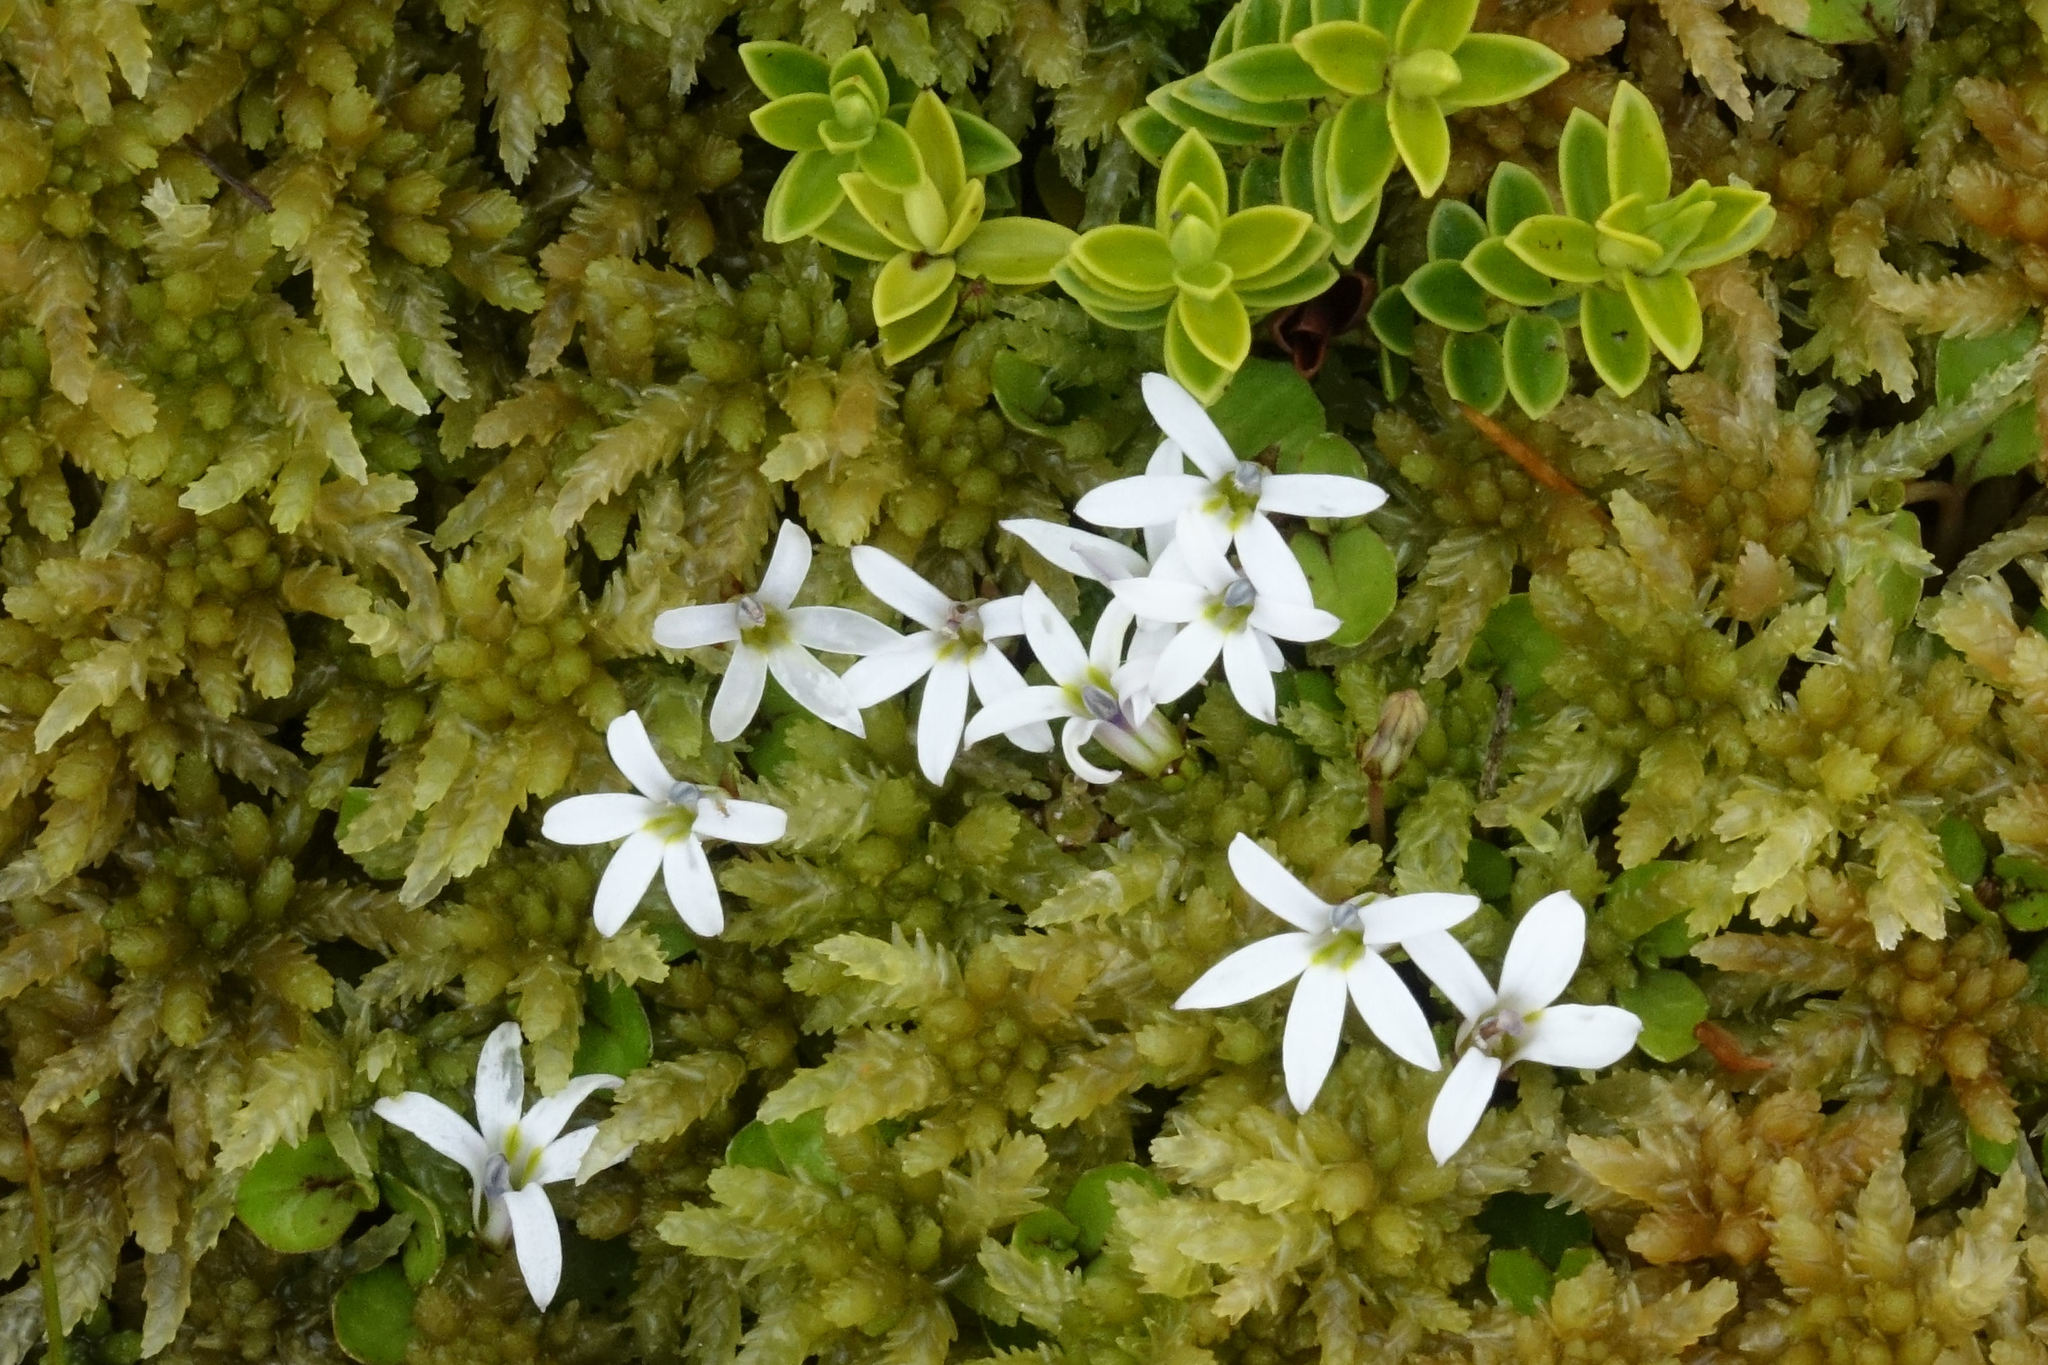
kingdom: Plantae
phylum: Tracheophyta
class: Magnoliopsida
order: Asterales
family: Campanulaceae
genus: Lobelia
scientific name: Lobelia angulata
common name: Lawn lobelia
